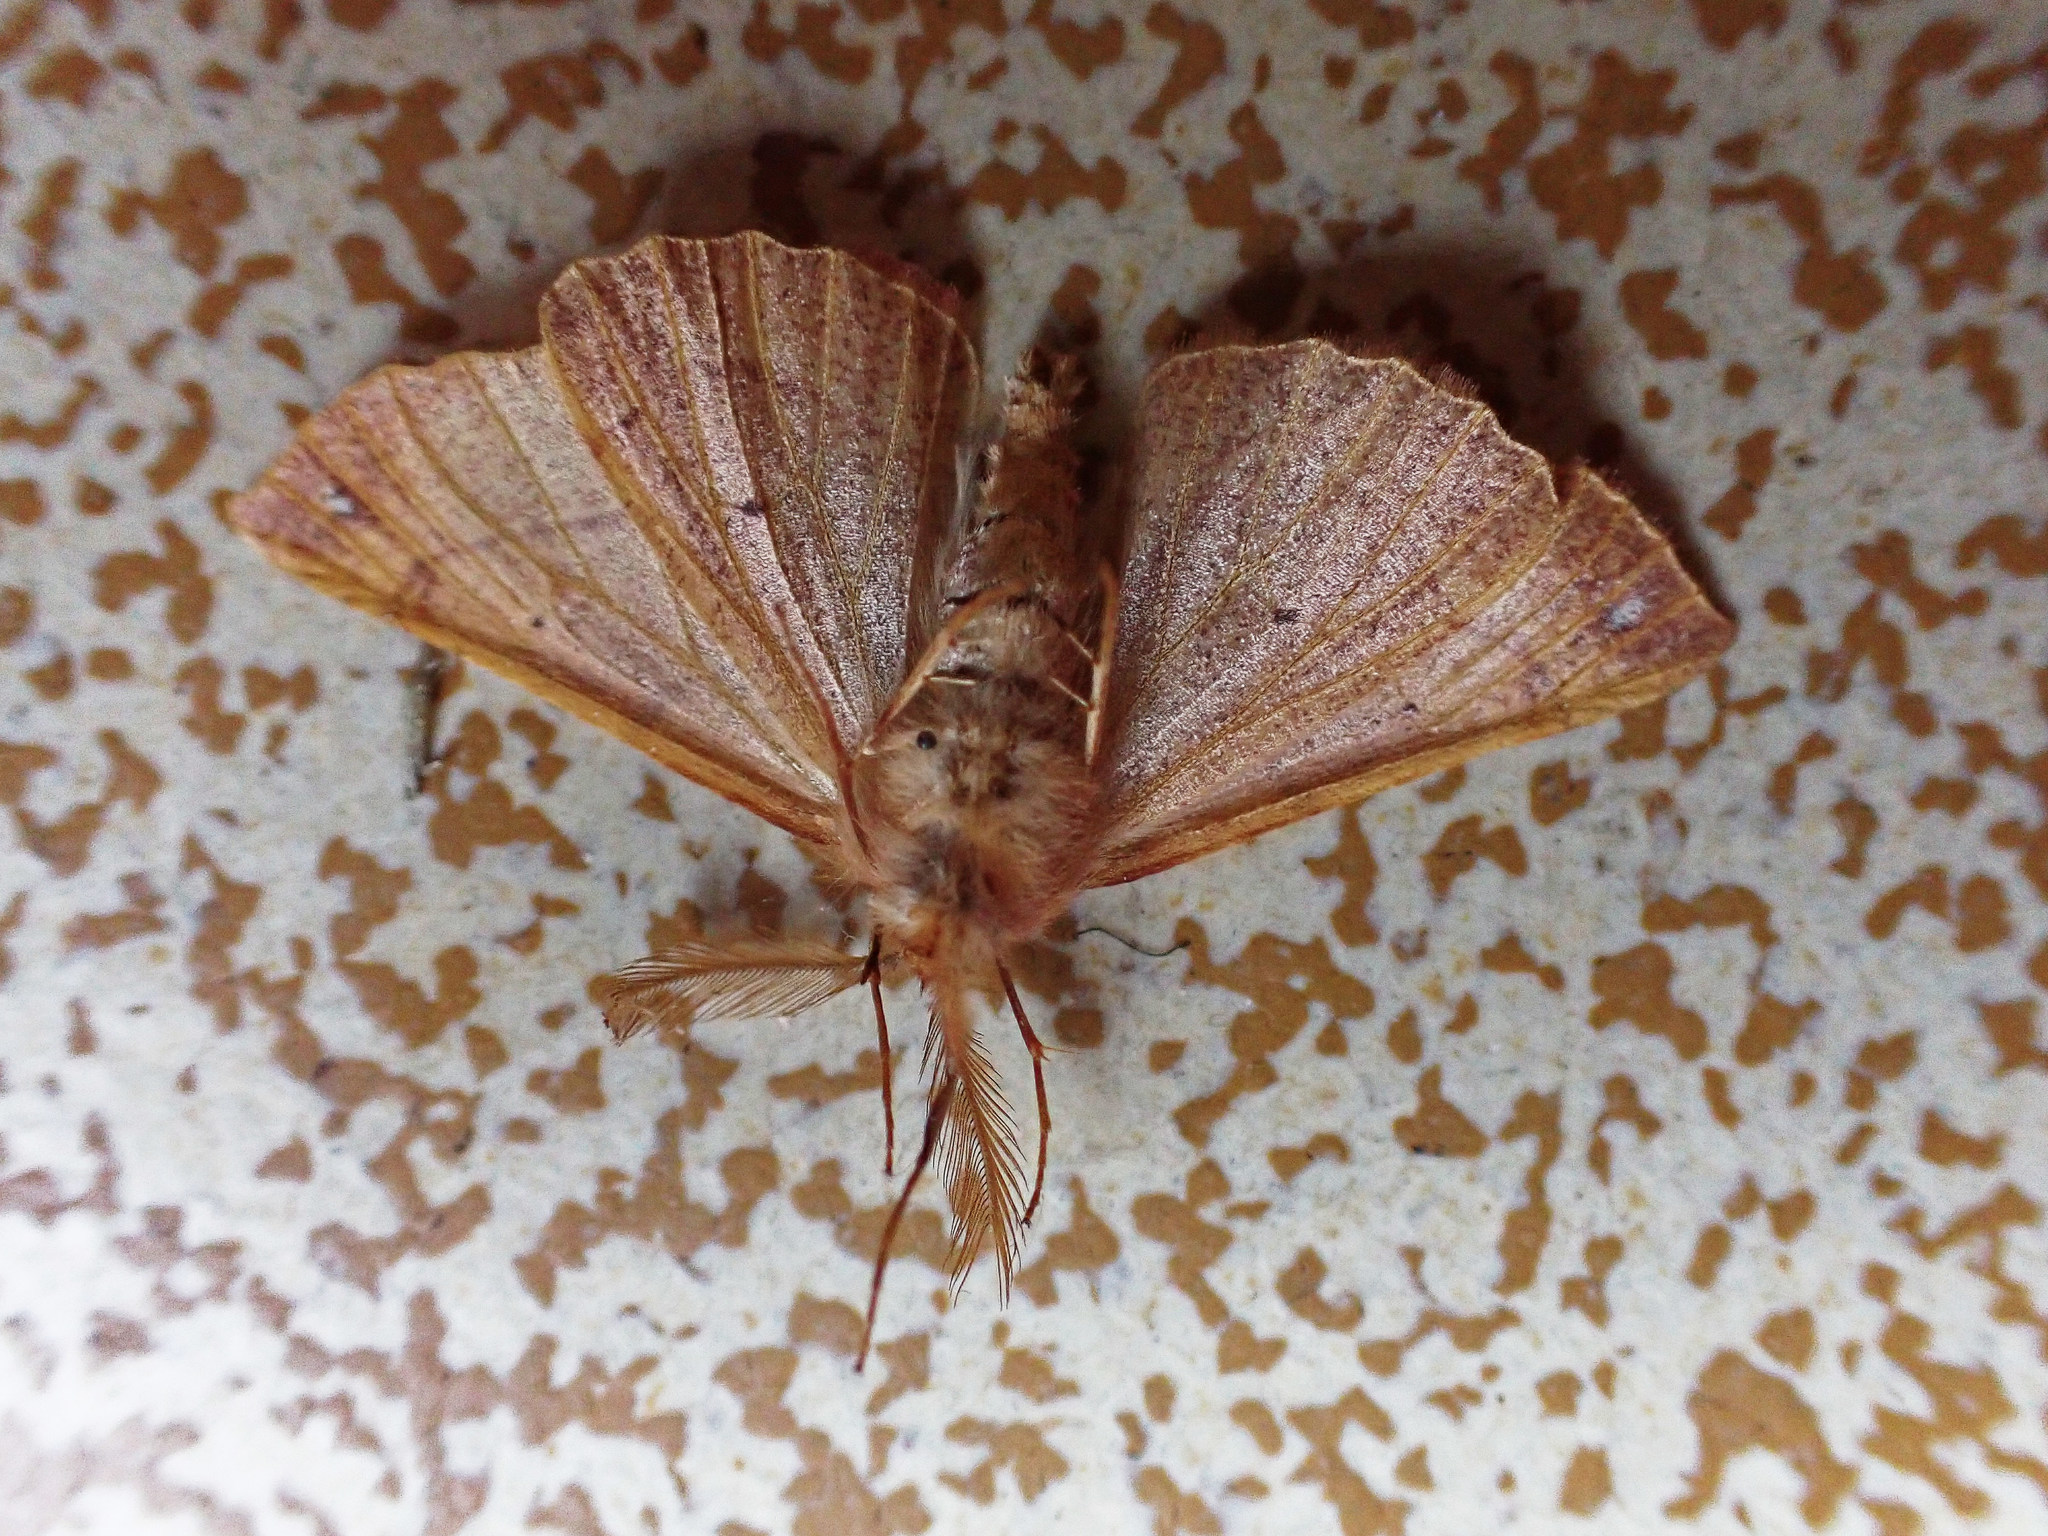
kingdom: Animalia
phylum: Arthropoda
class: Insecta
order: Lepidoptera
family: Geometridae
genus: Colotois
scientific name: Colotois pennaria
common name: Feathered thorn
